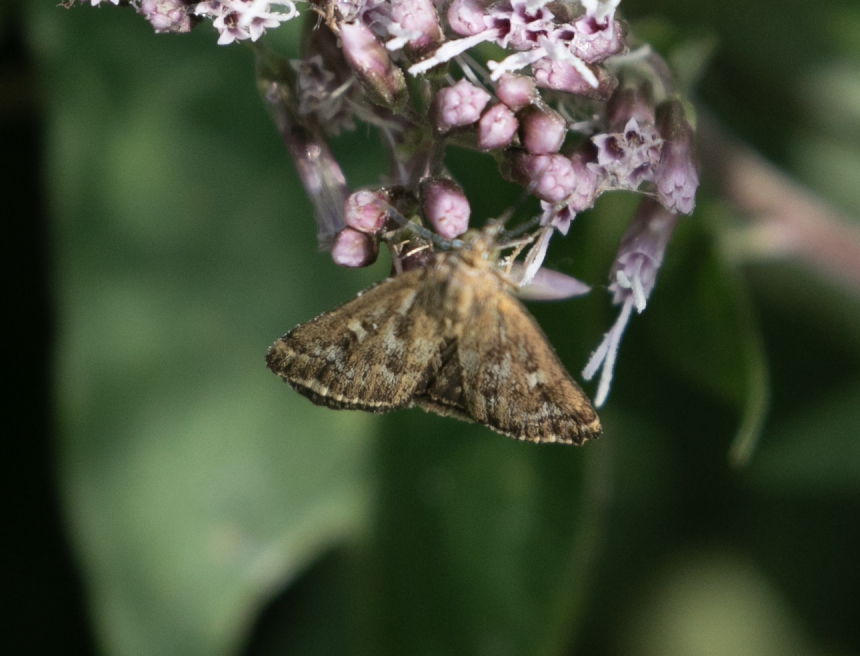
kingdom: Animalia
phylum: Arthropoda
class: Insecta
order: Lepidoptera
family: Crambidae
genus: Loxostege
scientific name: Loxostege sticticalis
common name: Crambid moth
